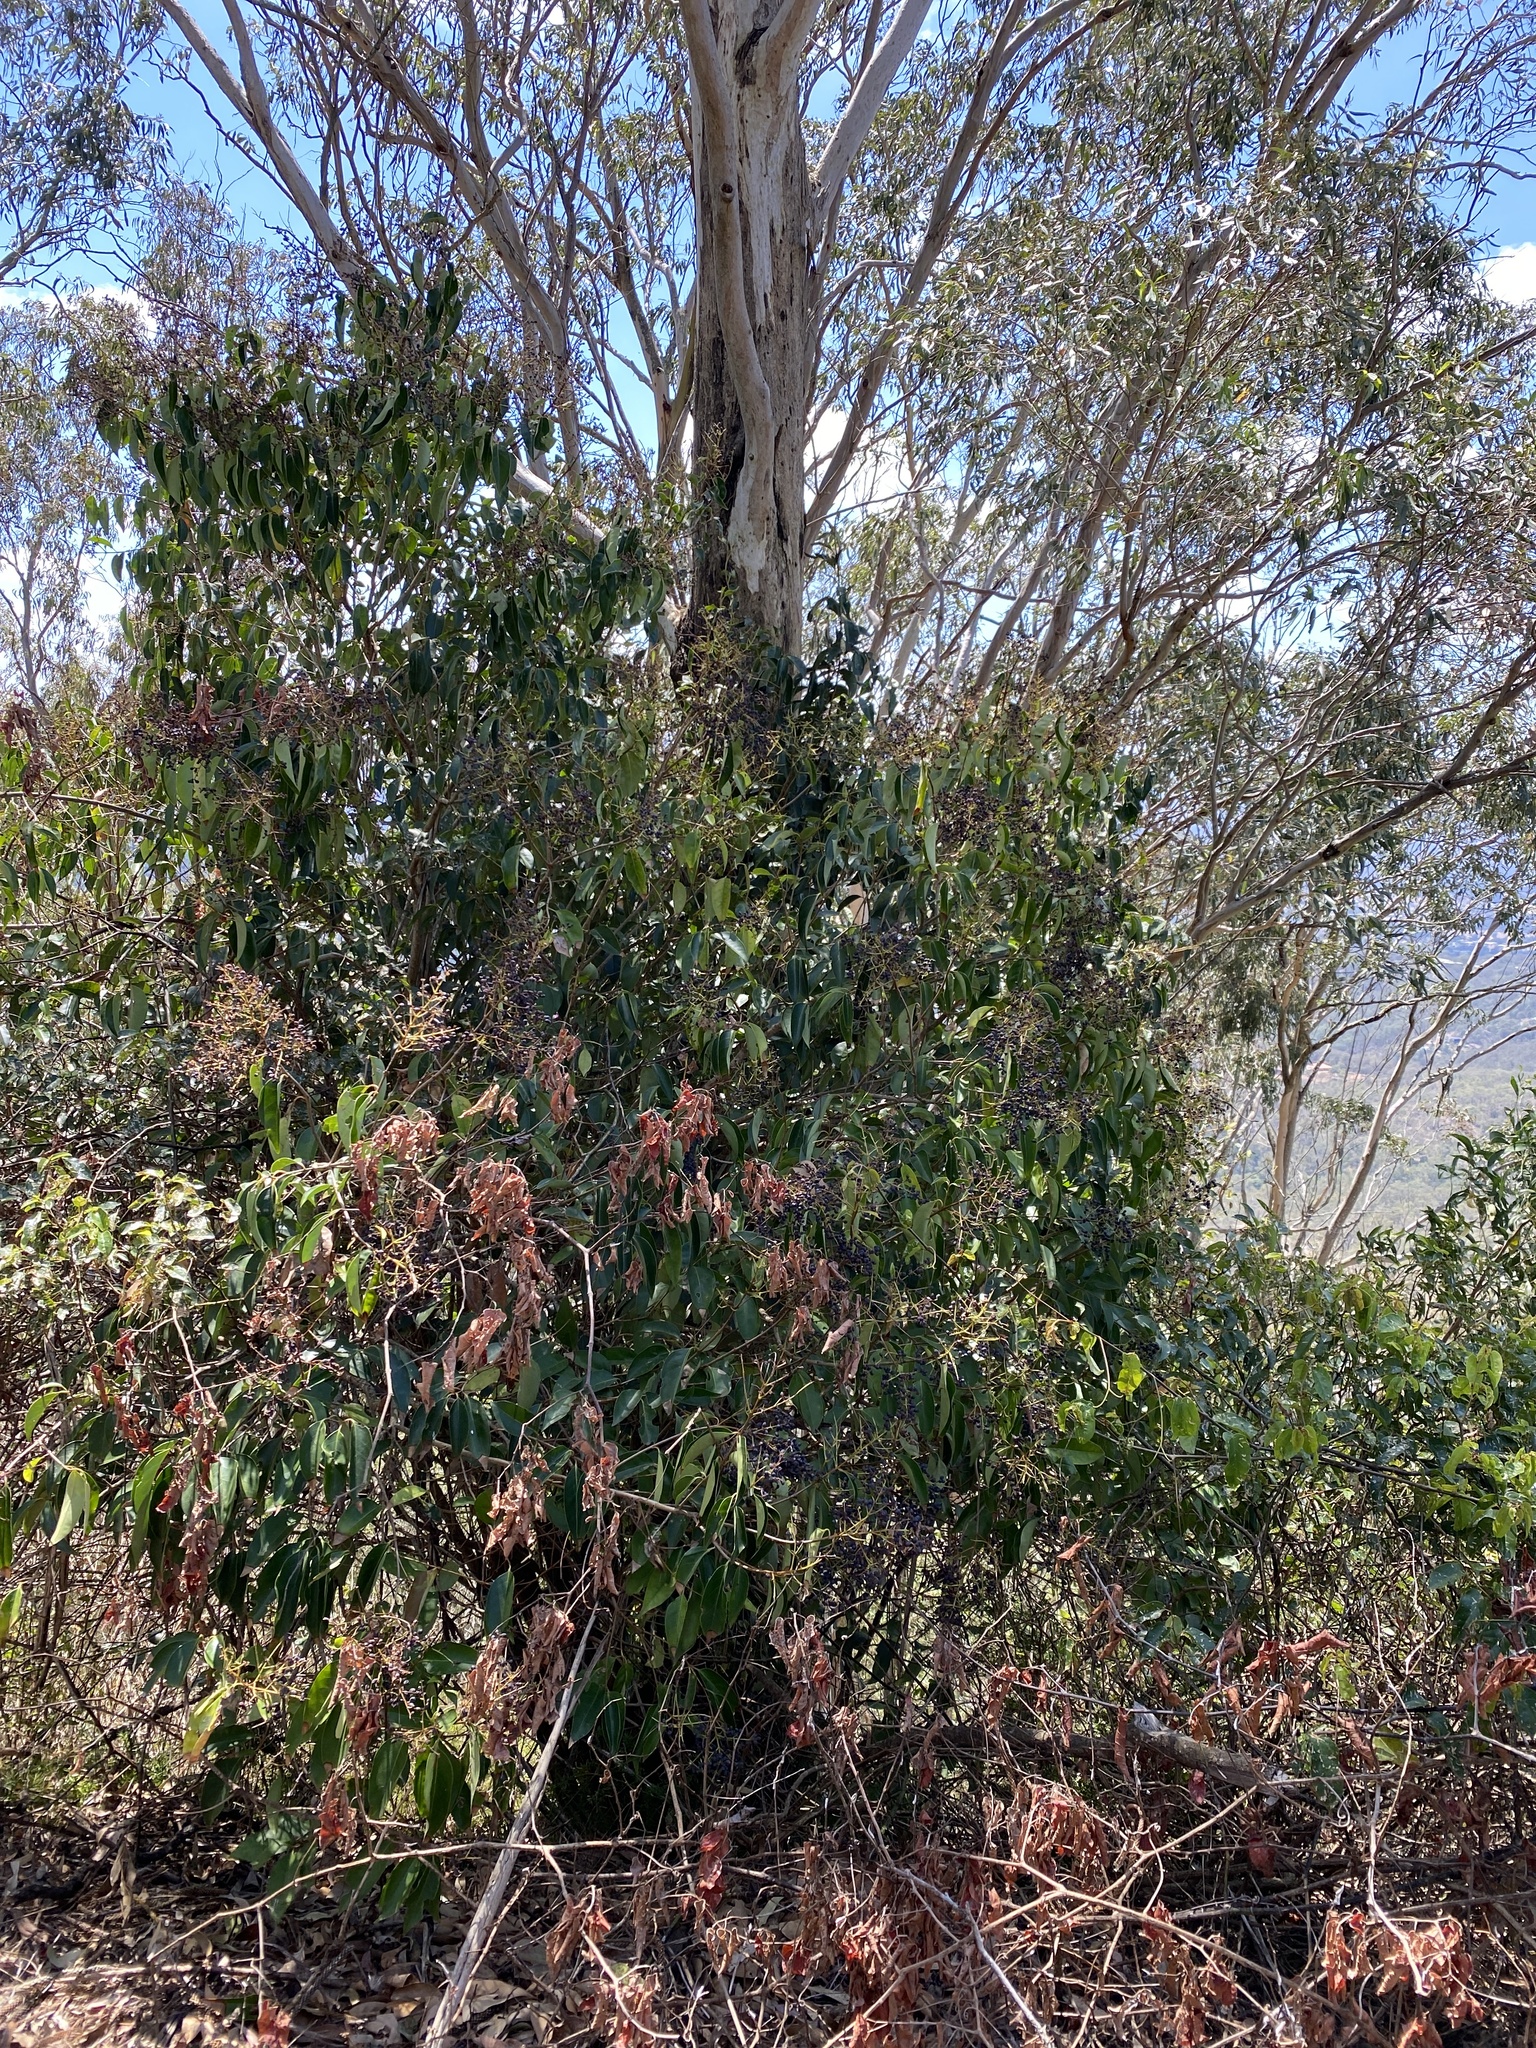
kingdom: Plantae
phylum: Tracheophyta
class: Magnoliopsida
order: Lamiales
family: Oleaceae
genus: Ligustrum
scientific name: Ligustrum lucidum
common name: Glossy privet
